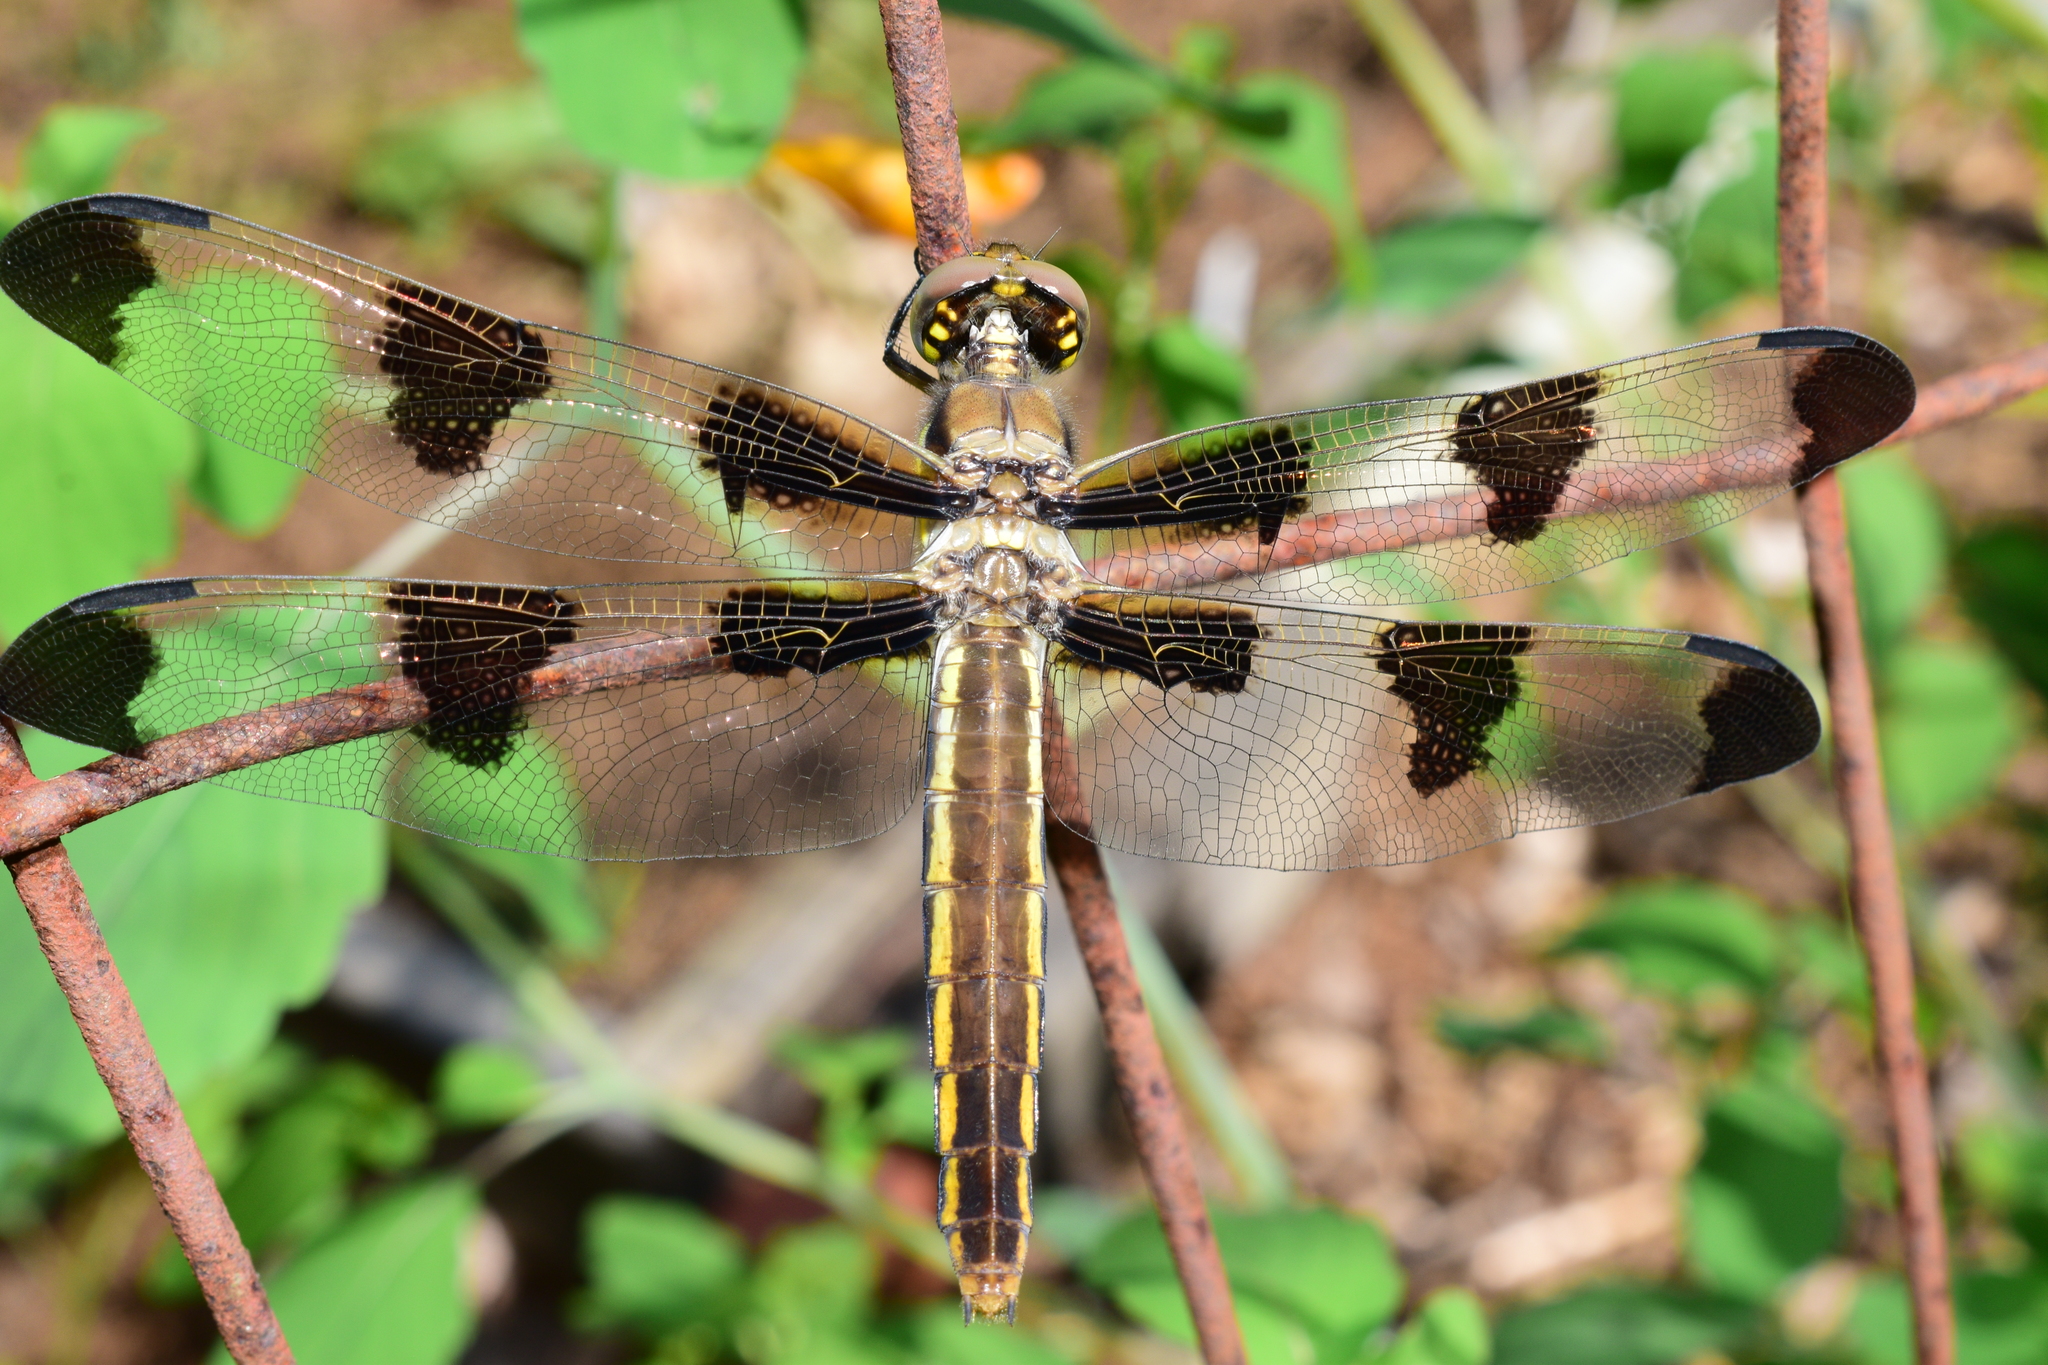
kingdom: Animalia
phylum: Arthropoda
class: Insecta
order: Odonata
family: Libellulidae
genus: Libellula
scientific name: Libellula pulchella
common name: Twelve-spotted skimmer
